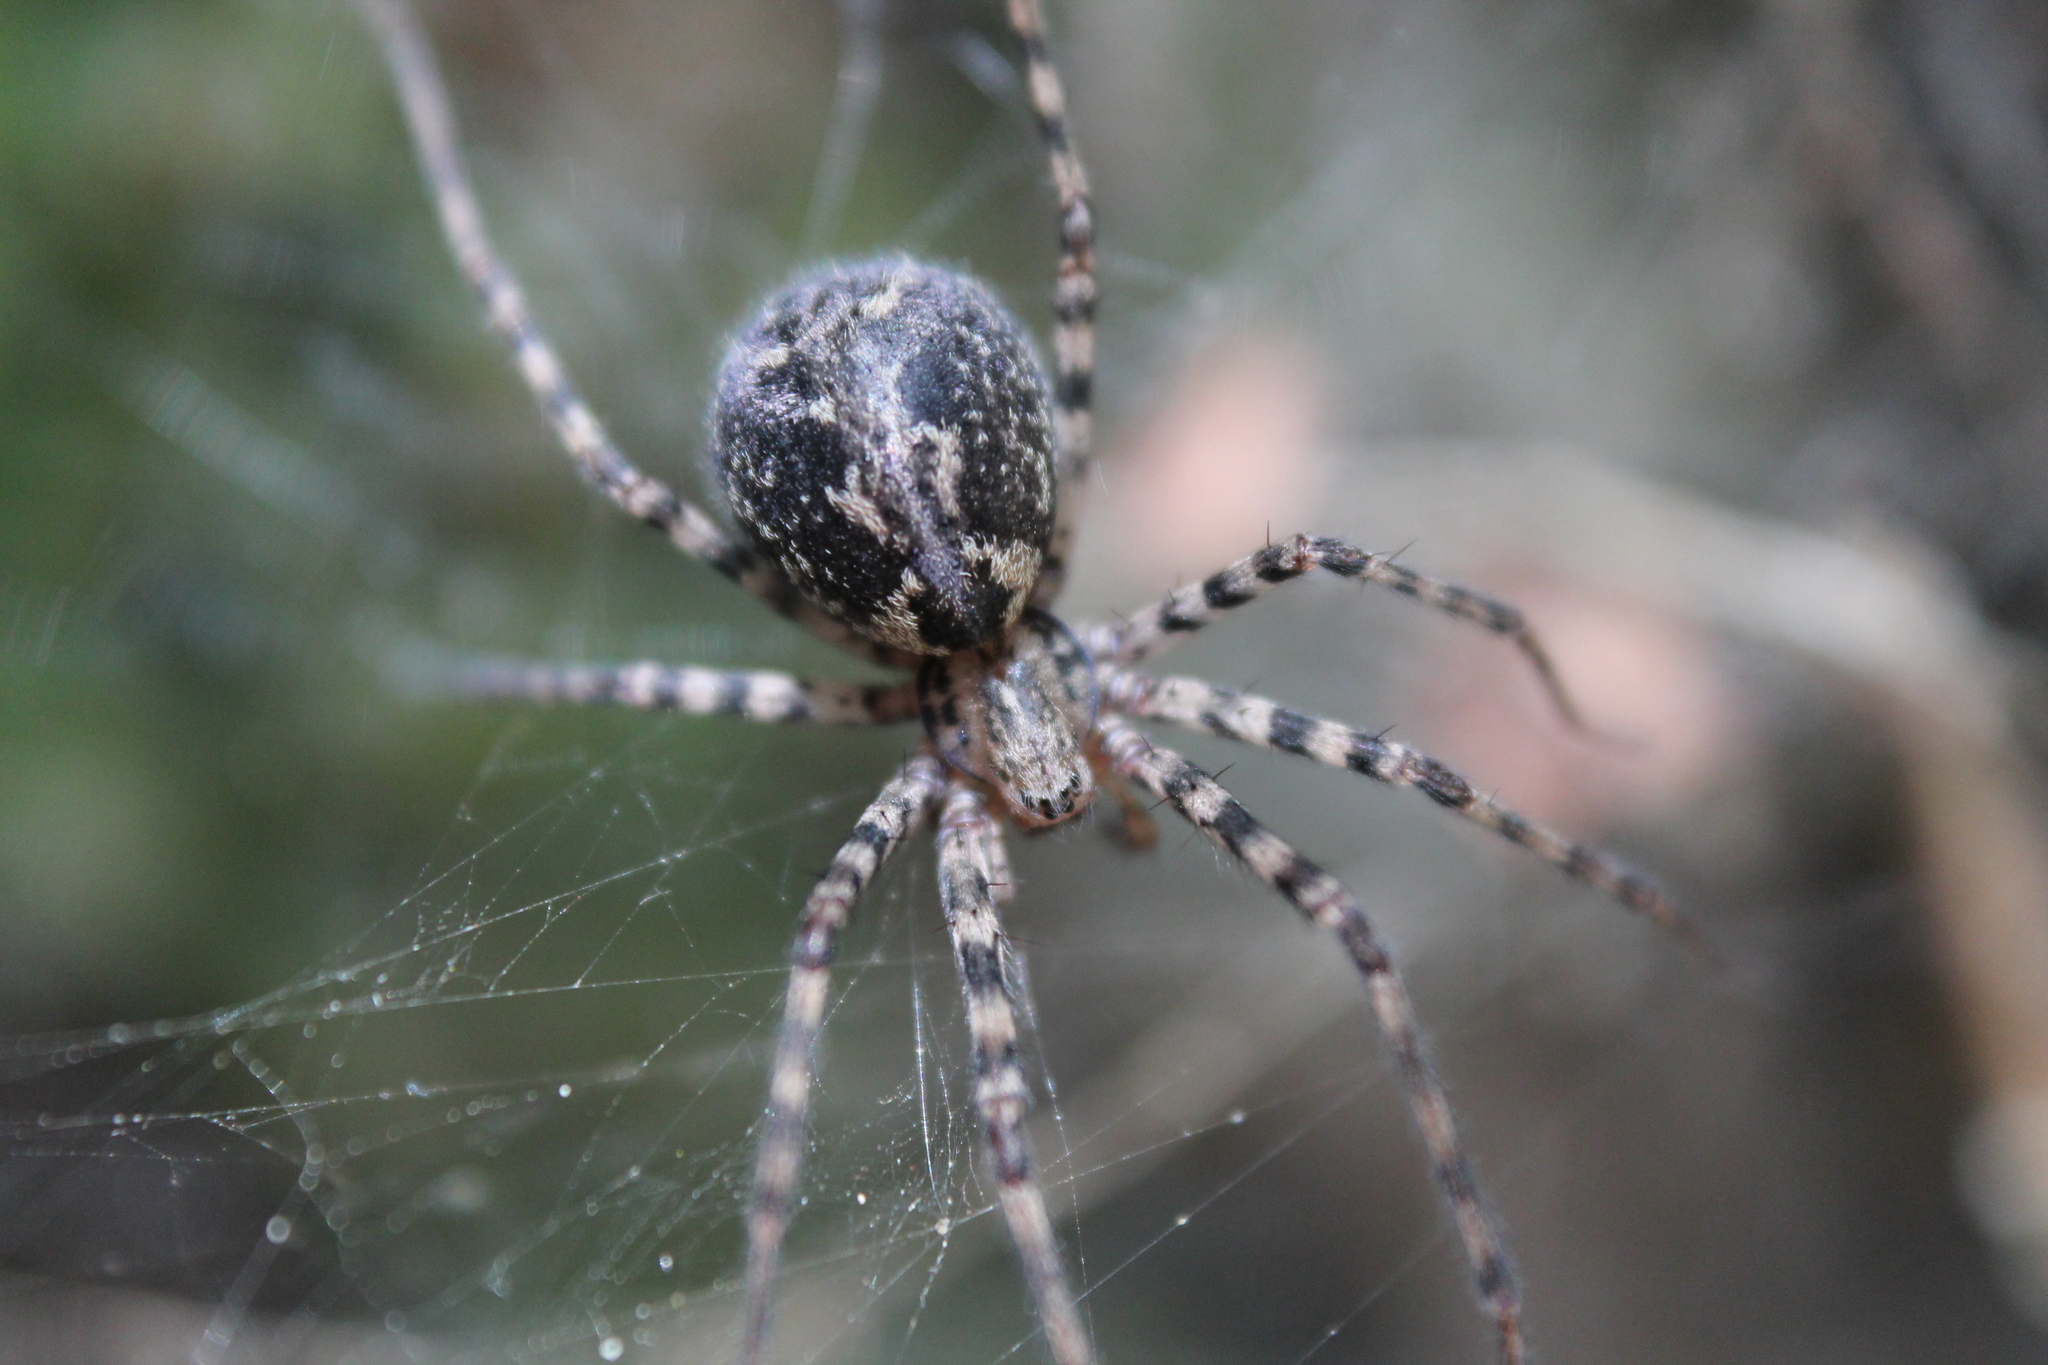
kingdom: Animalia
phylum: Arthropoda
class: Arachnida
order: Araneae
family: Stiphidiidae
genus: Stiphidion
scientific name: Stiphidion facetum
